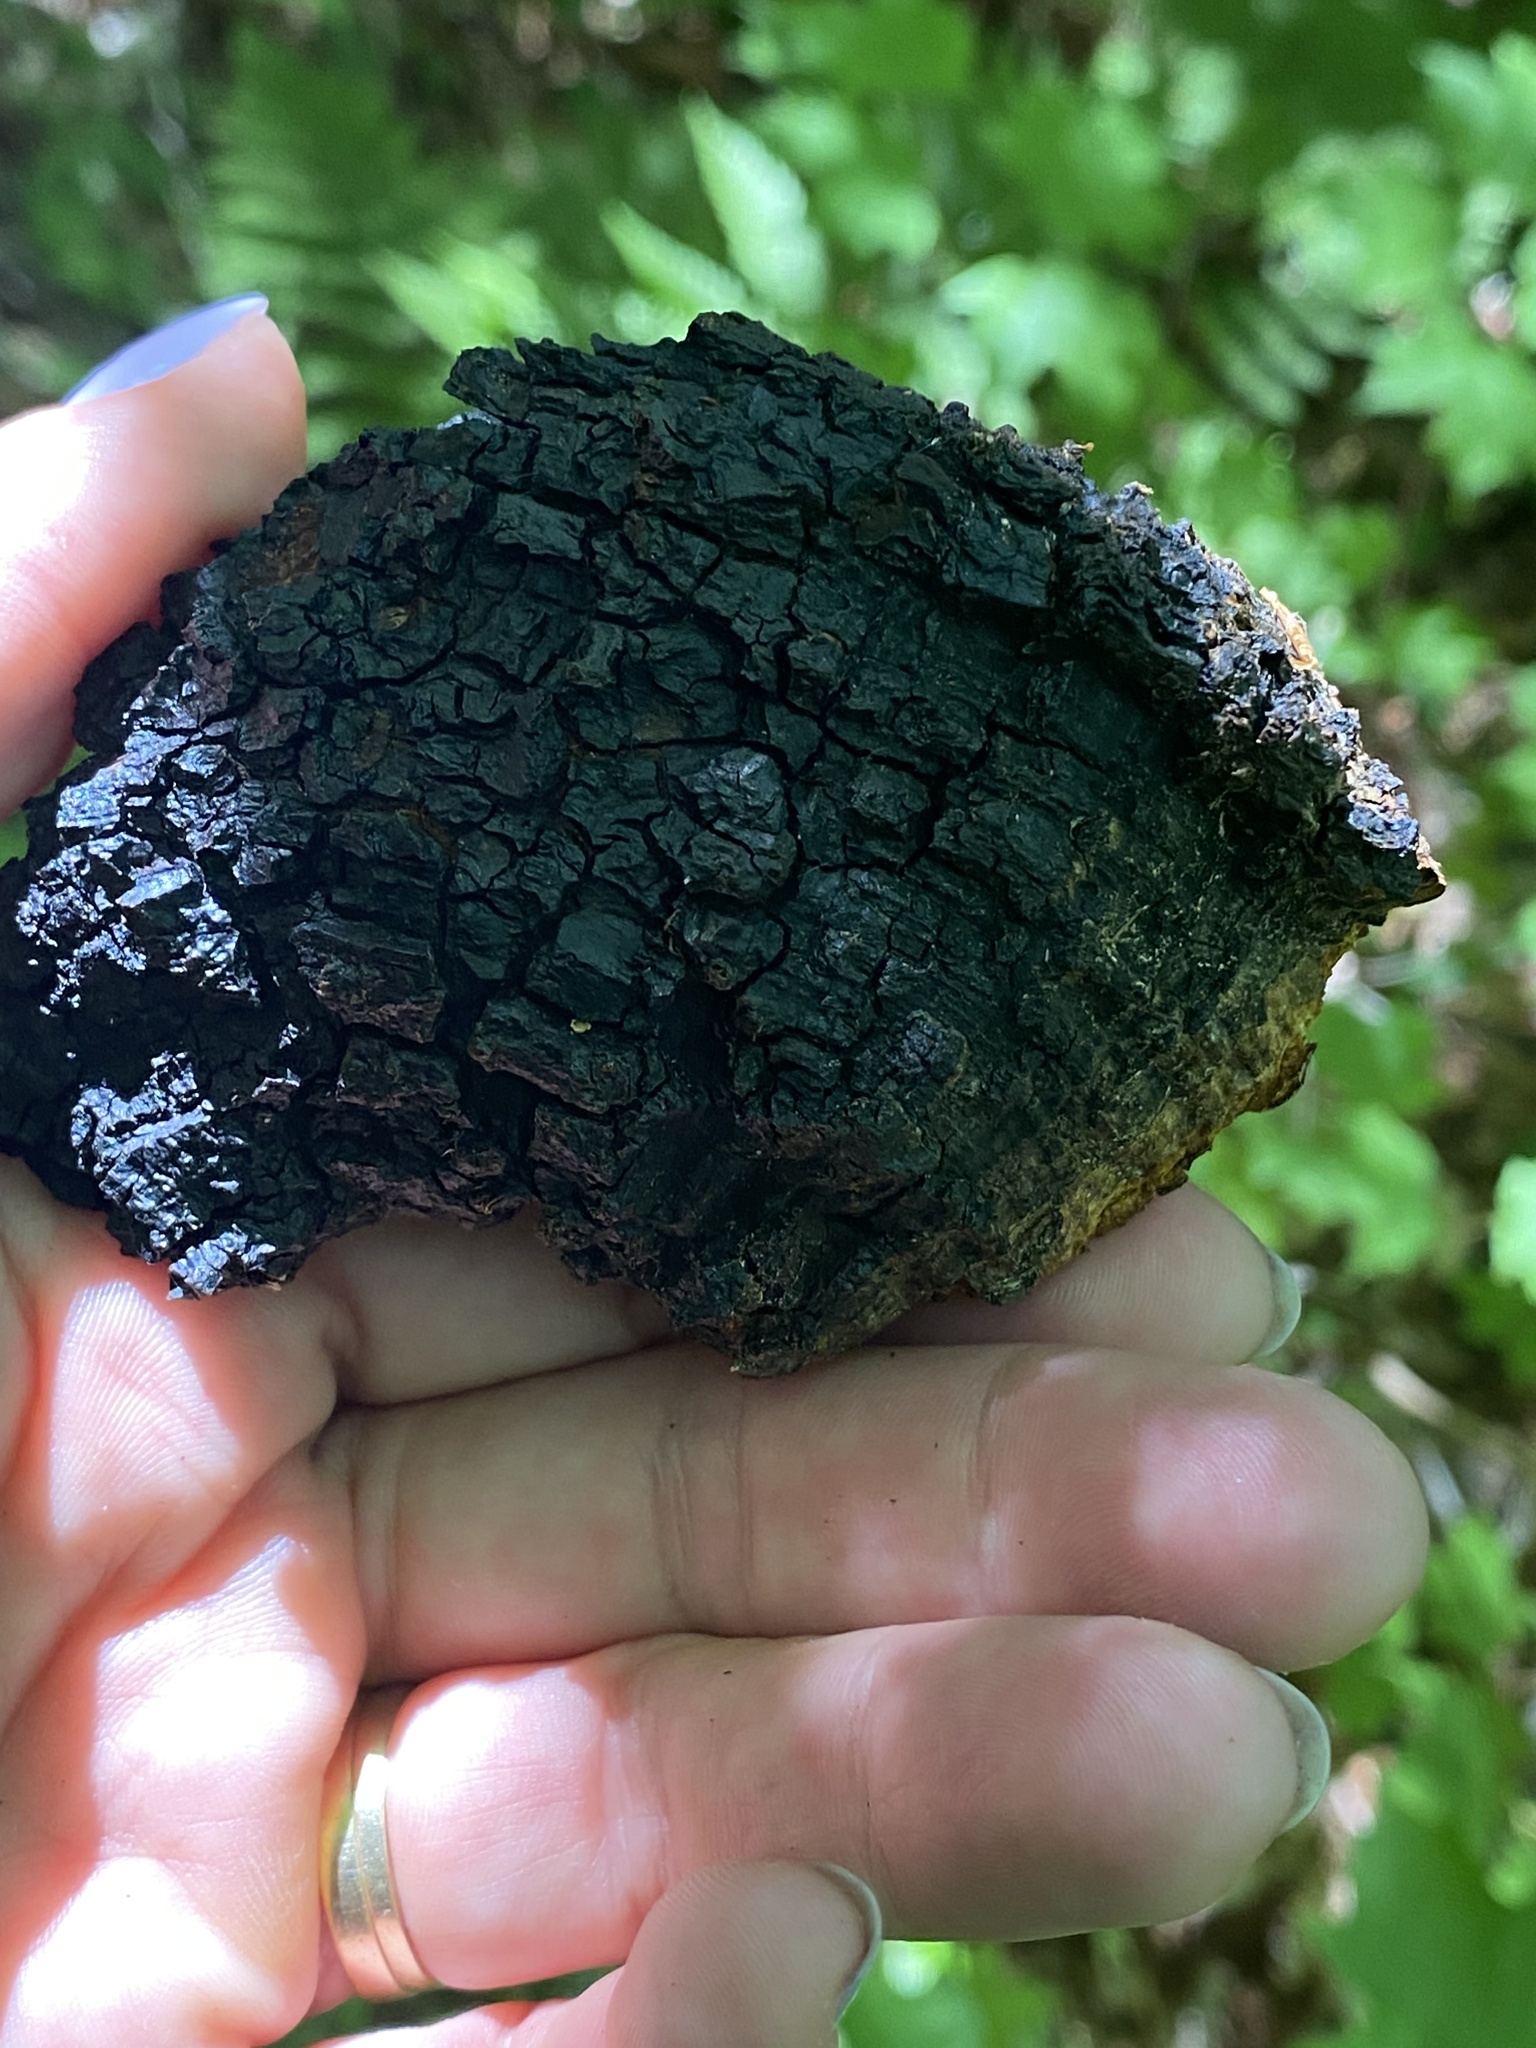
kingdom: Fungi
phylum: Basidiomycota
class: Agaricomycetes
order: Hymenochaetales
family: Hymenochaetaceae
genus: Inonotus
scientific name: Inonotus obliquus
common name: Chaga
